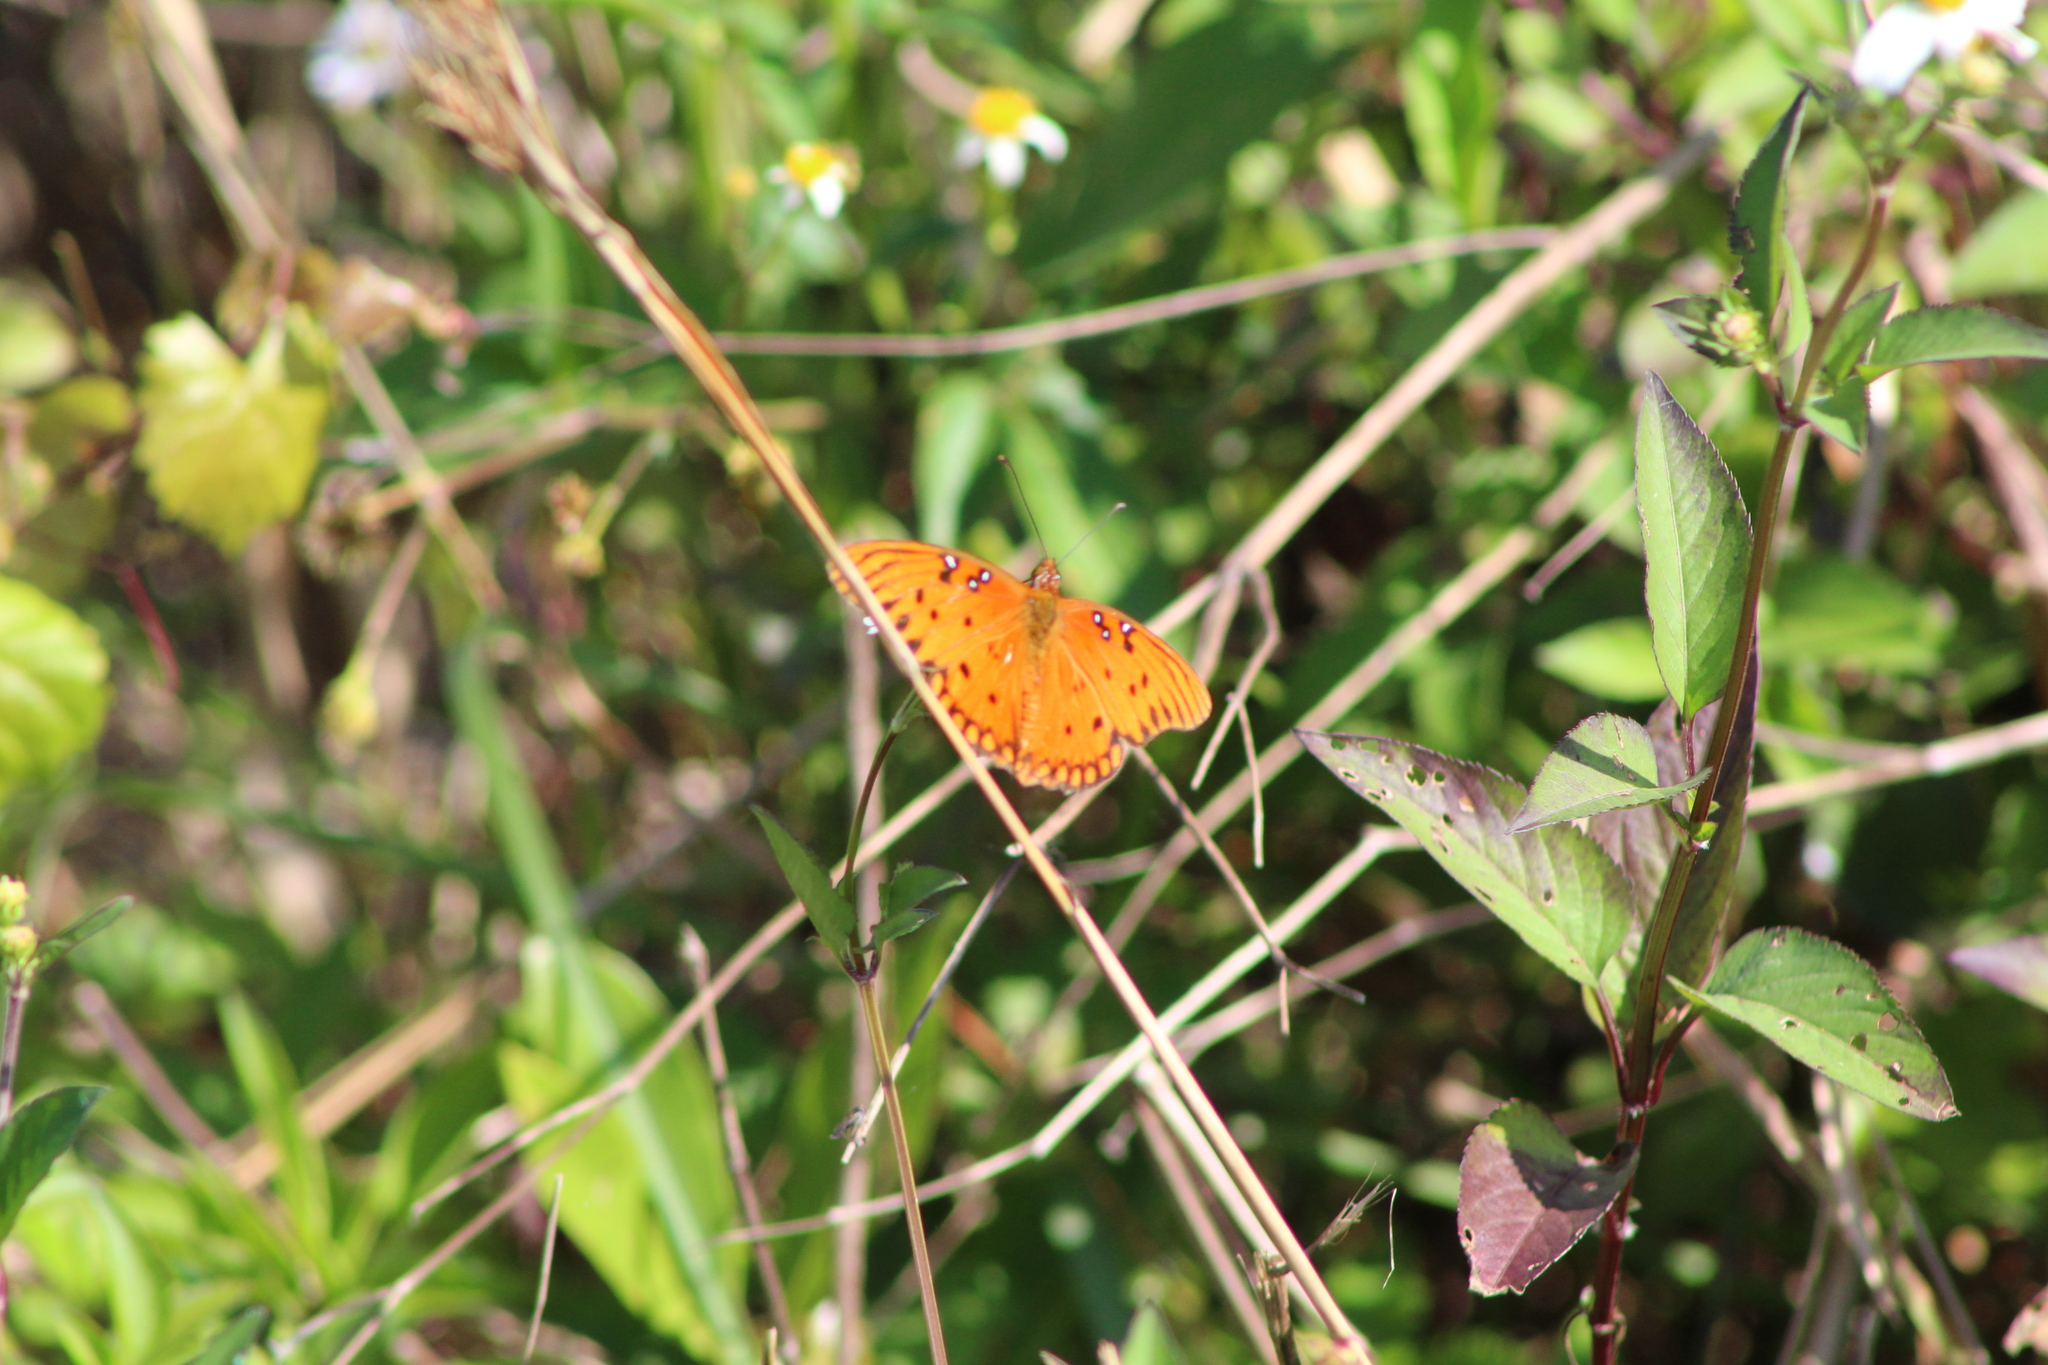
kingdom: Animalia
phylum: Arthropoda
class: Insecta
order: Lepidoptera
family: Nymphalidae
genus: Dione
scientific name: Dione vanillae
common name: Gulf fritillary
